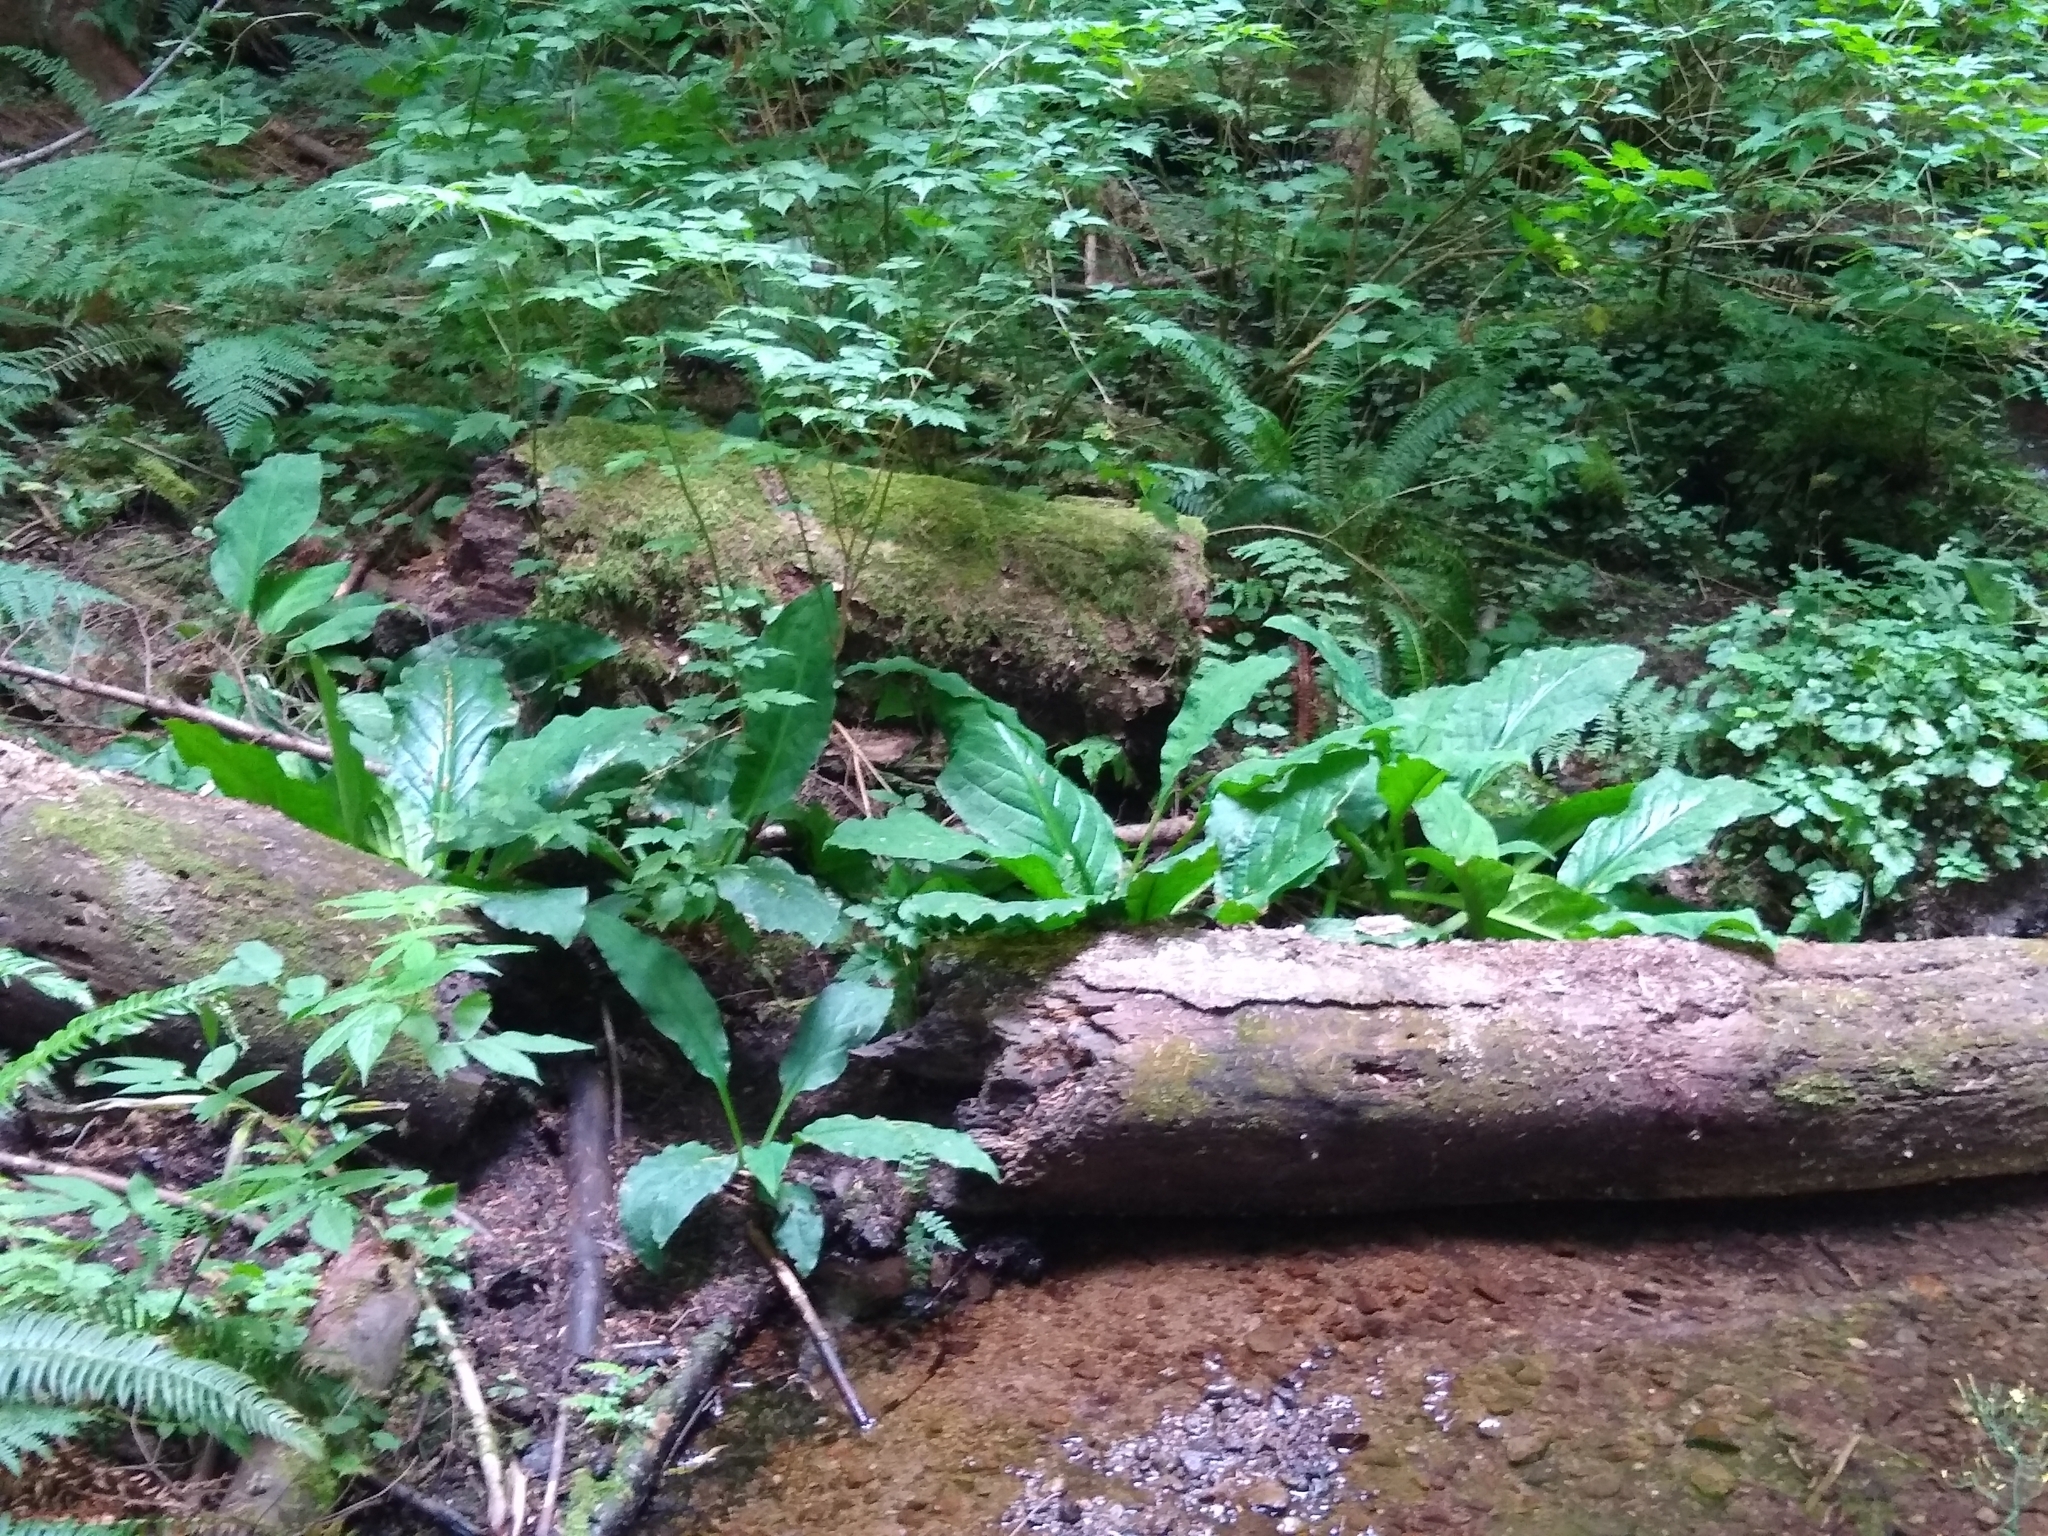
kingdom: Plantae
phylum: Tracheophyta
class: Liliopsida
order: Alismatales
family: Araceae
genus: Lysichiton
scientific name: Lysichiton americanus
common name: American skunk cabbage
